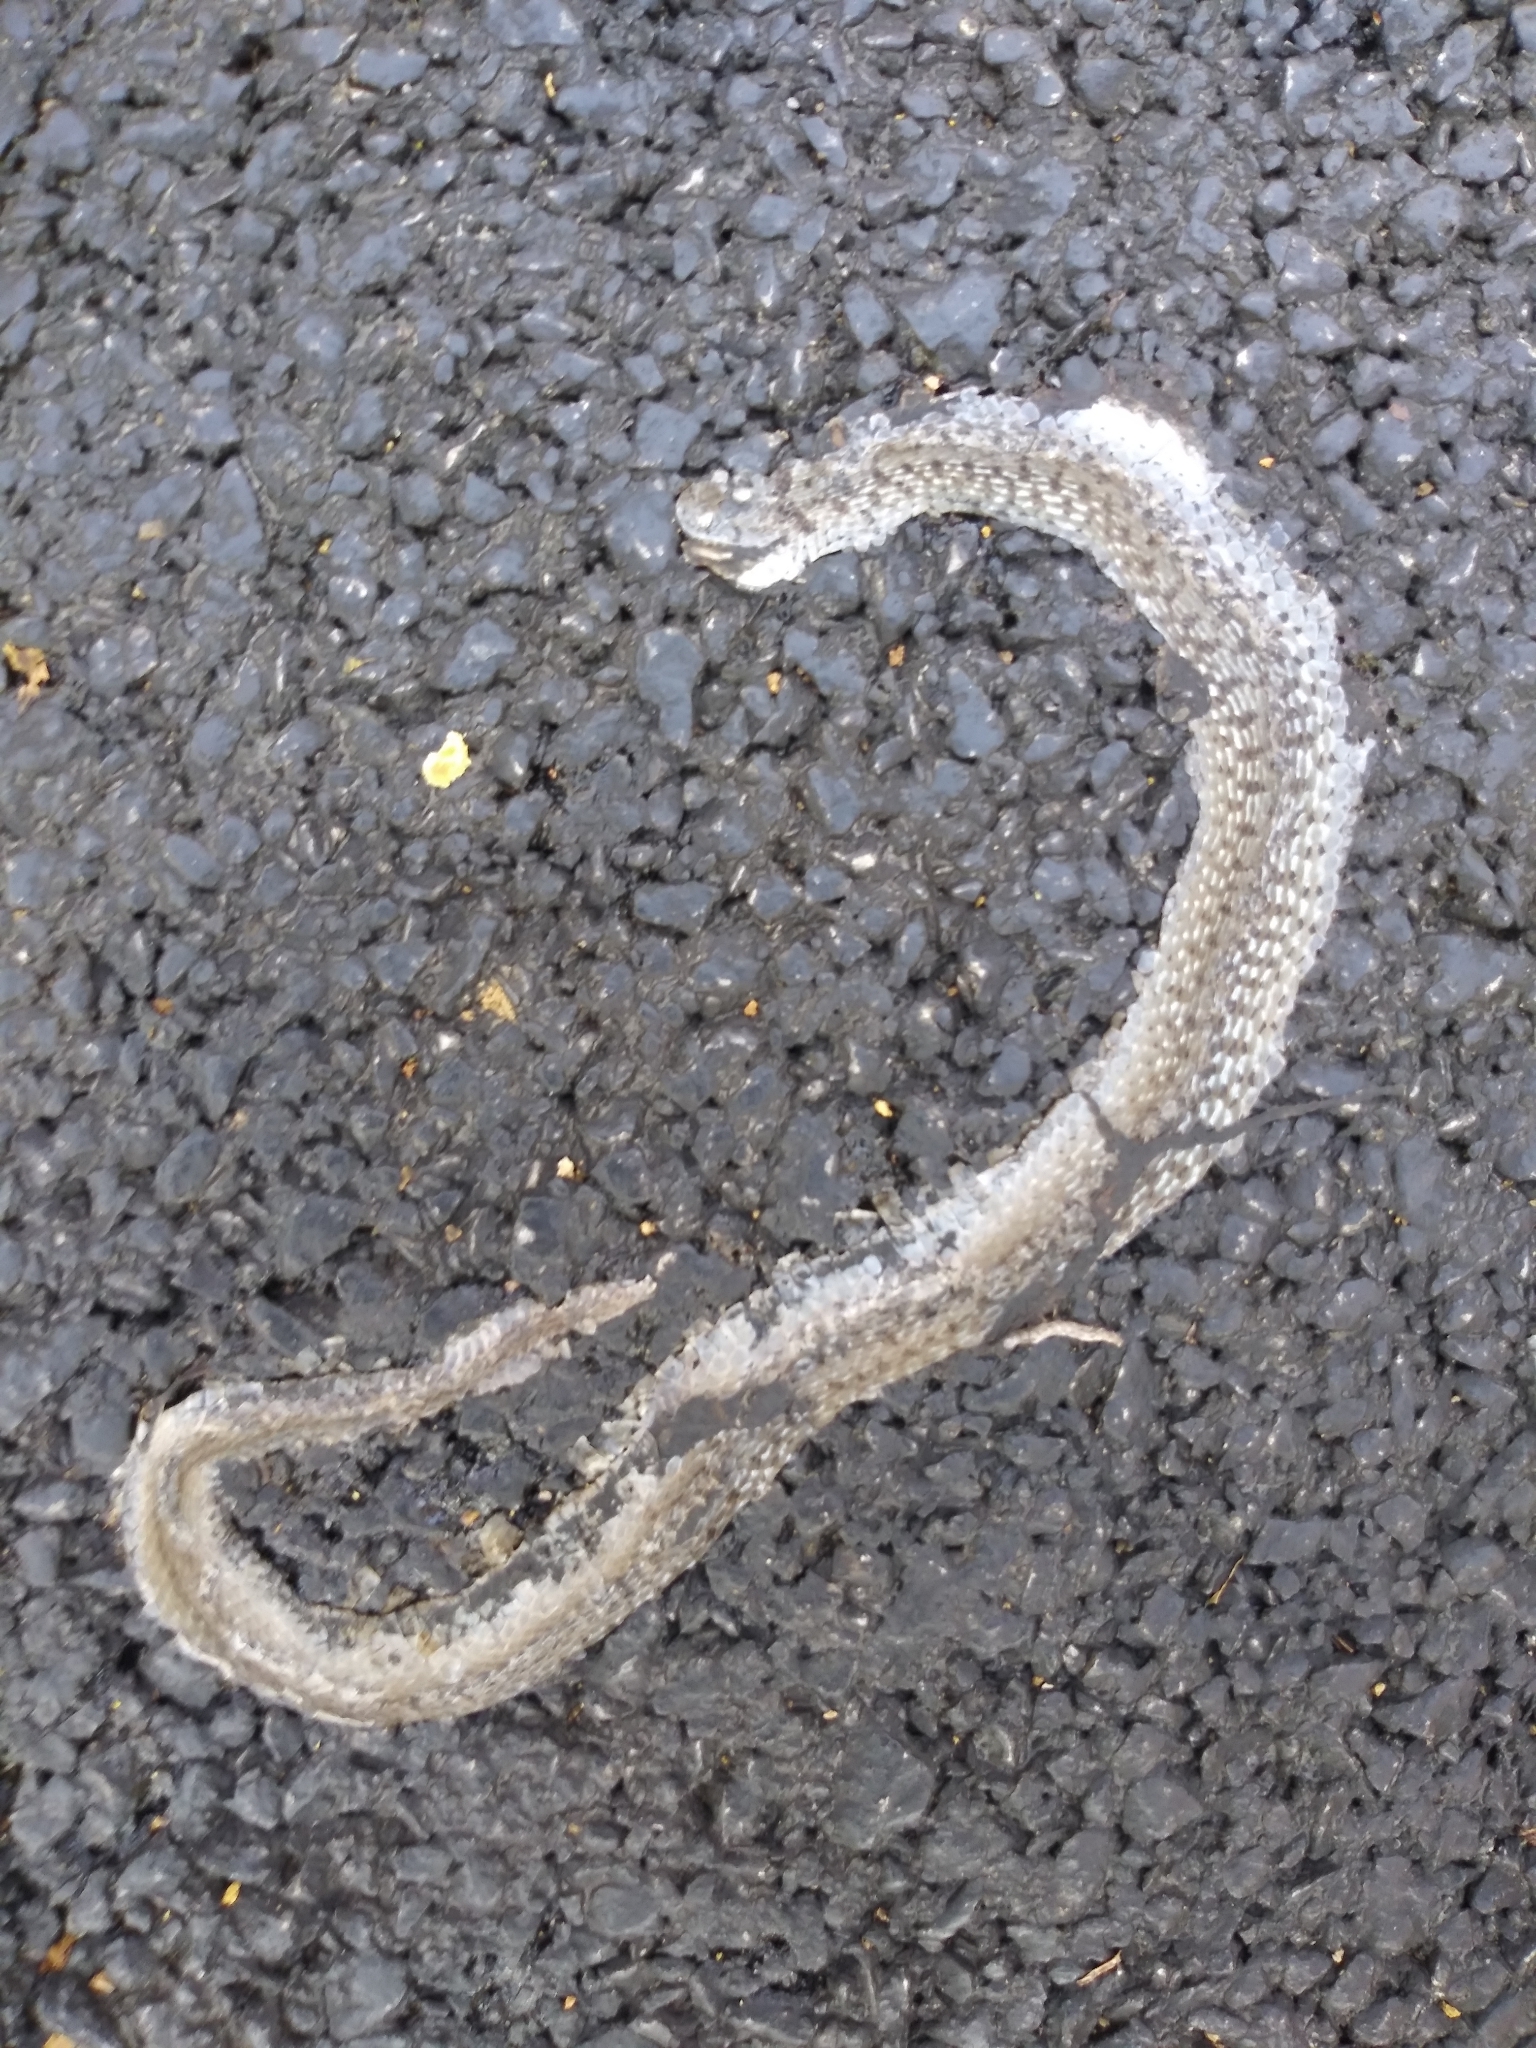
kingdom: Animalia
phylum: Chordata
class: Squamata
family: Colubridae
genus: Storeria
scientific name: Storeria dekayi
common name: (dekay’s) brown snake
